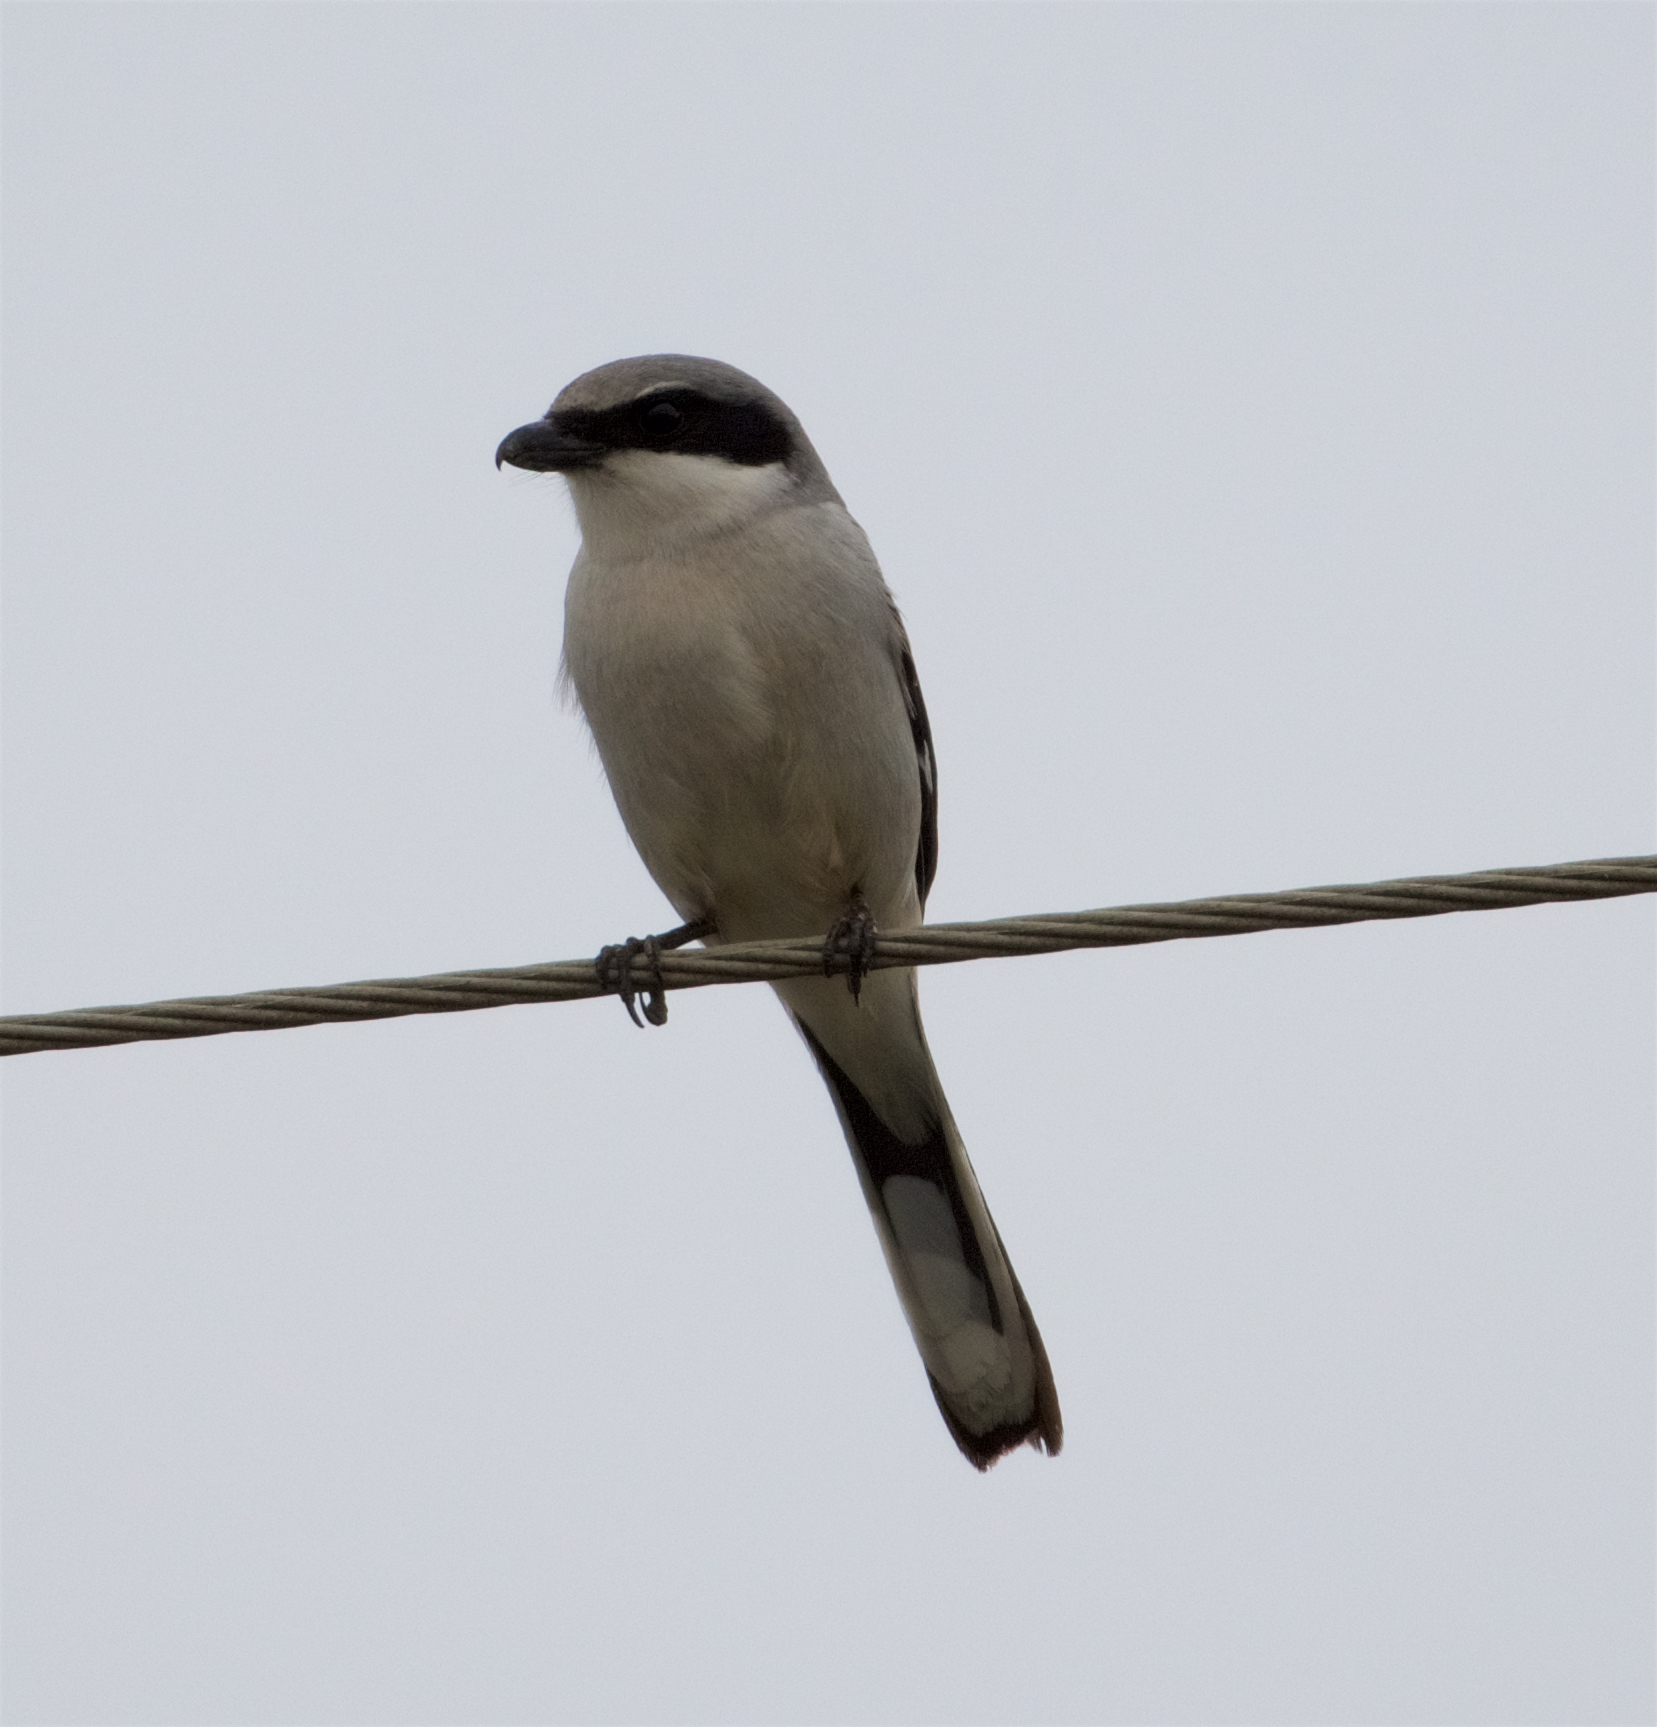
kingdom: Animalia
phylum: Chordata
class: Aves
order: Passeriformes
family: Laniidae
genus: Lanius
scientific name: Lanius ludovicianus
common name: Loggerhead shrike
